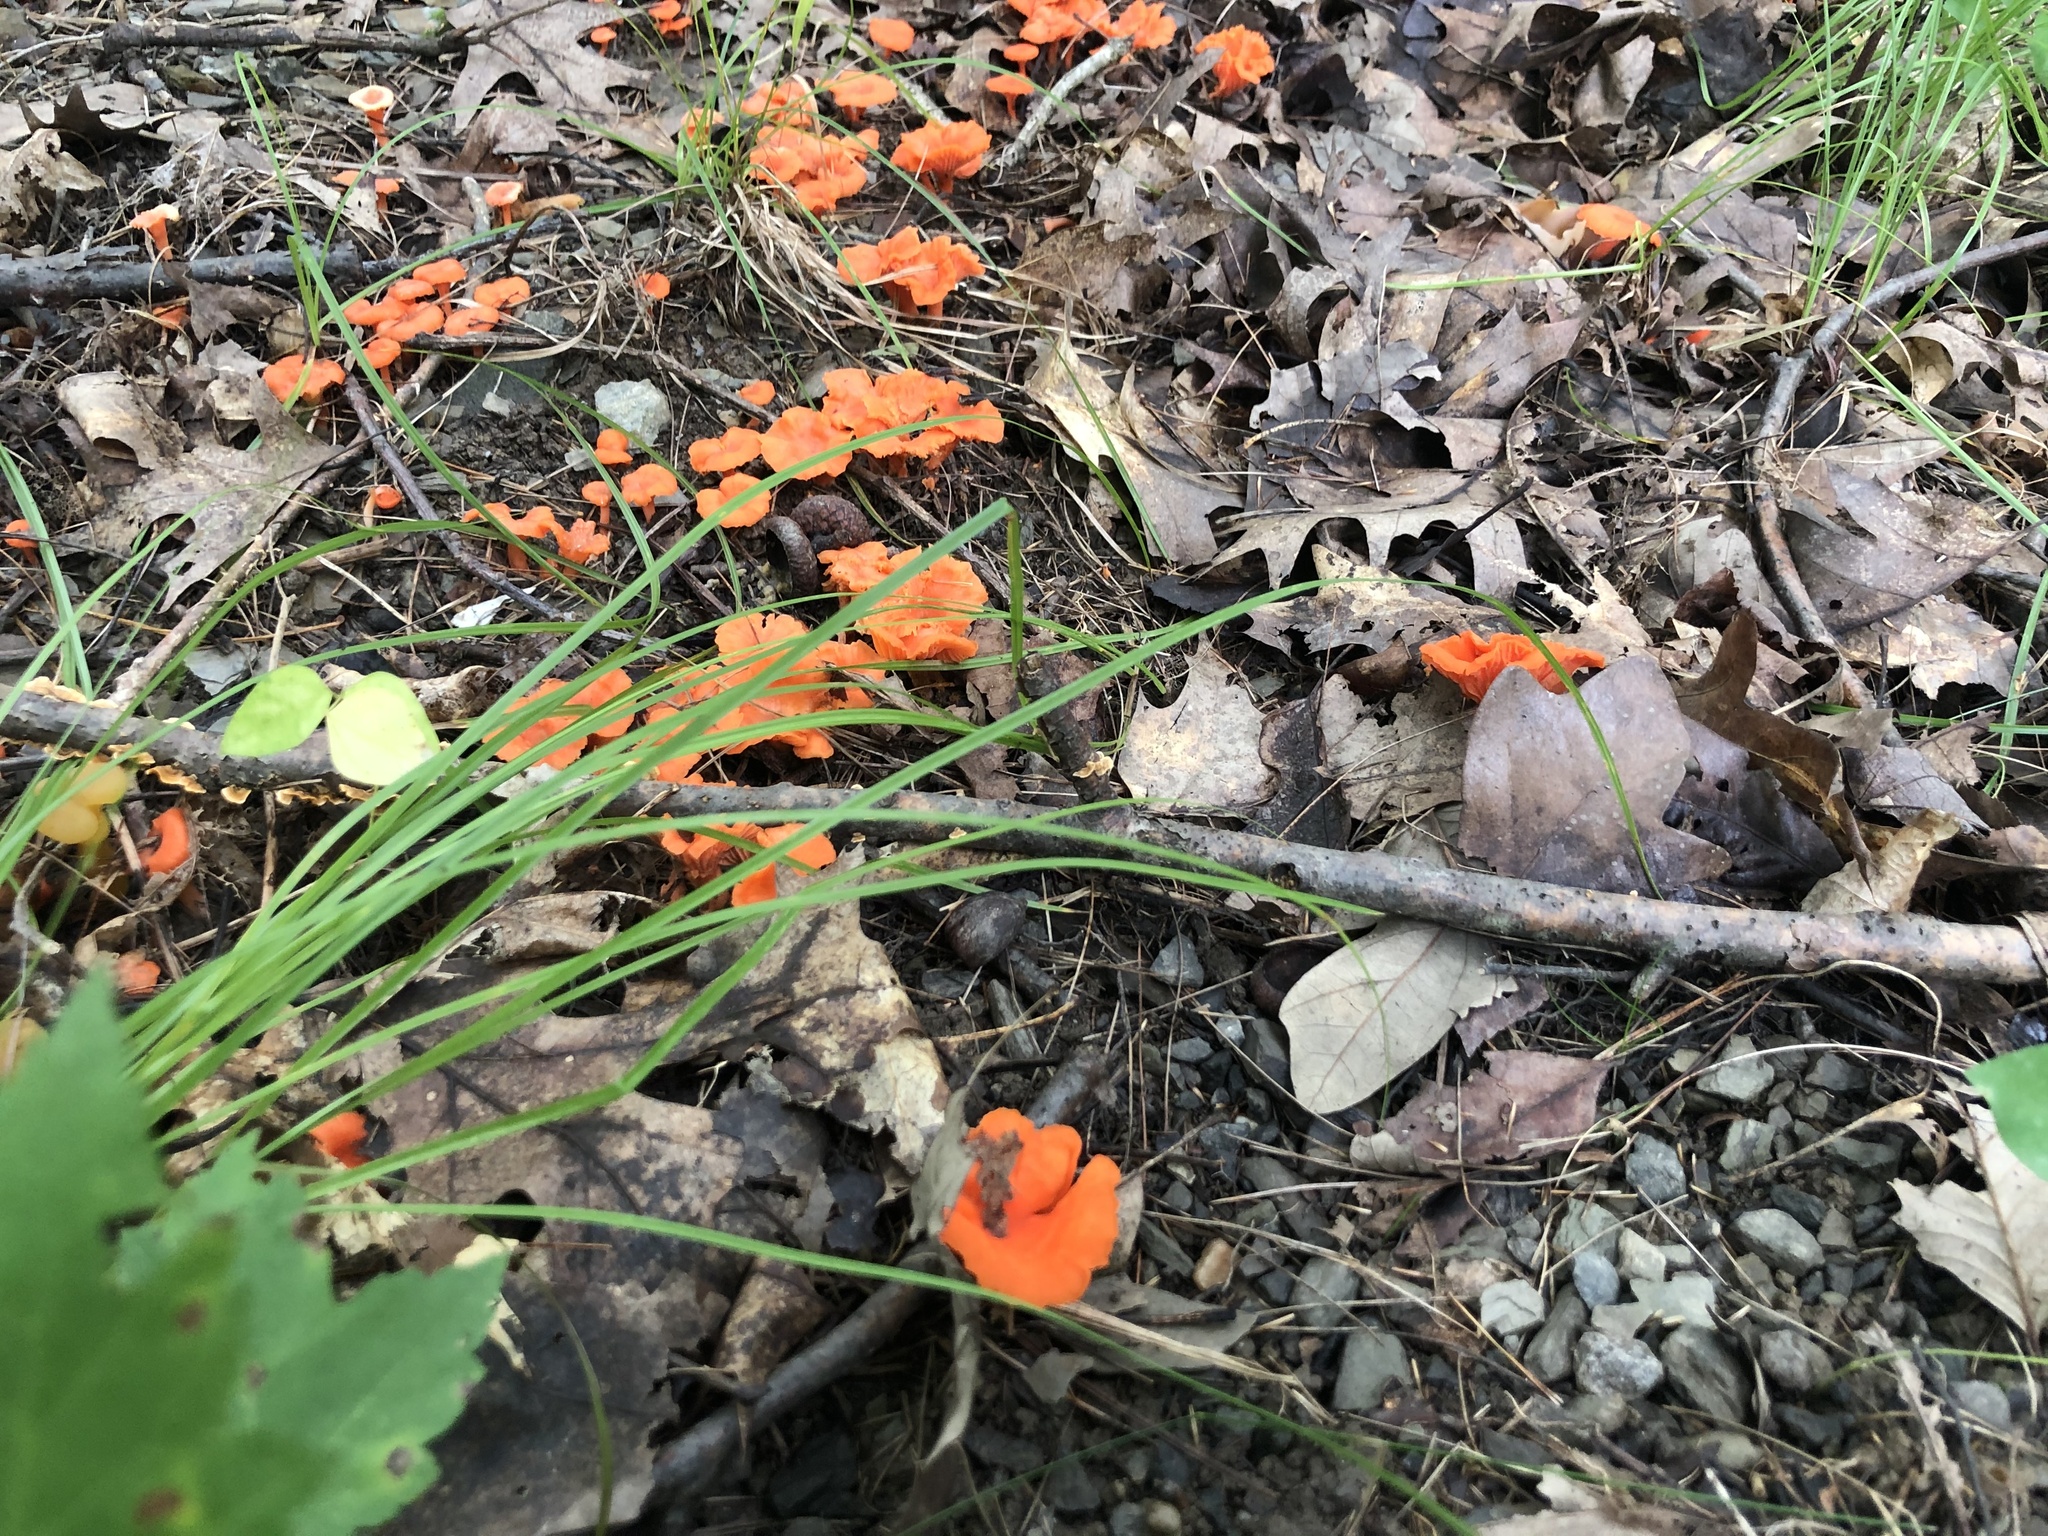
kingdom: Fungi
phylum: Basidiomycota
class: Agaricomycetes
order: Cantharellales
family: Hydnaceae
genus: Cantharellus
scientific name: Cantharellus cinnabarinus
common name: Cinnabar chanterelle
